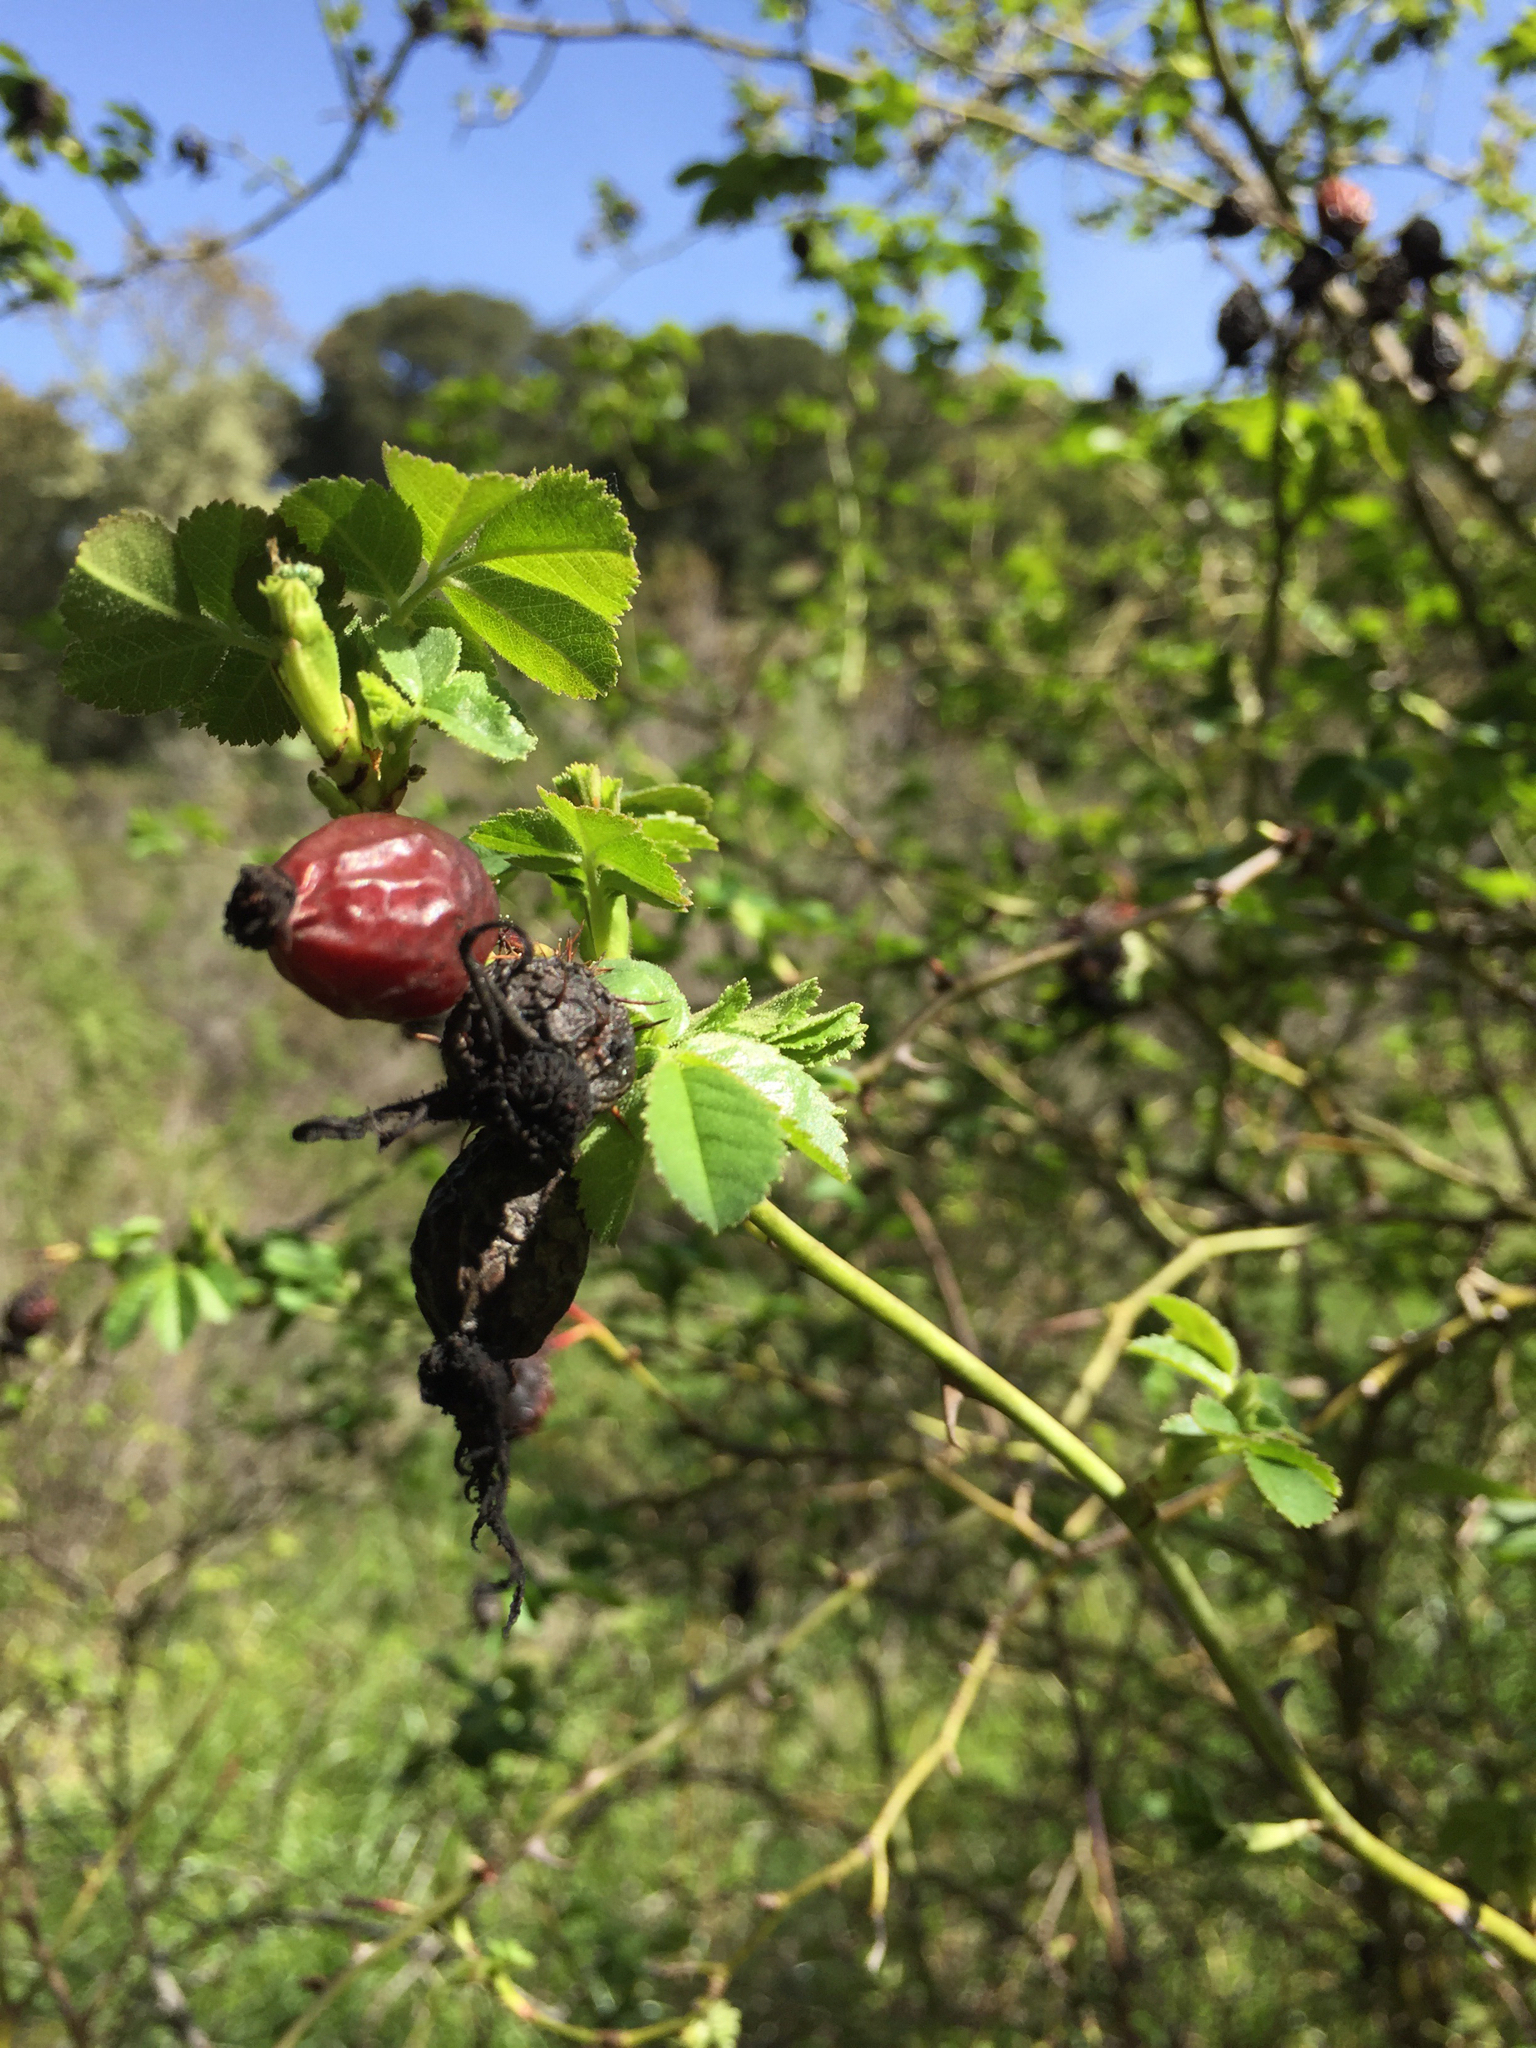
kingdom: Plantae
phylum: Tracheophyta
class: Magnoliopsida
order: Rosales
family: Rosaceae
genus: Rosa
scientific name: Rosa rubiginosa
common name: Sweet-briar
